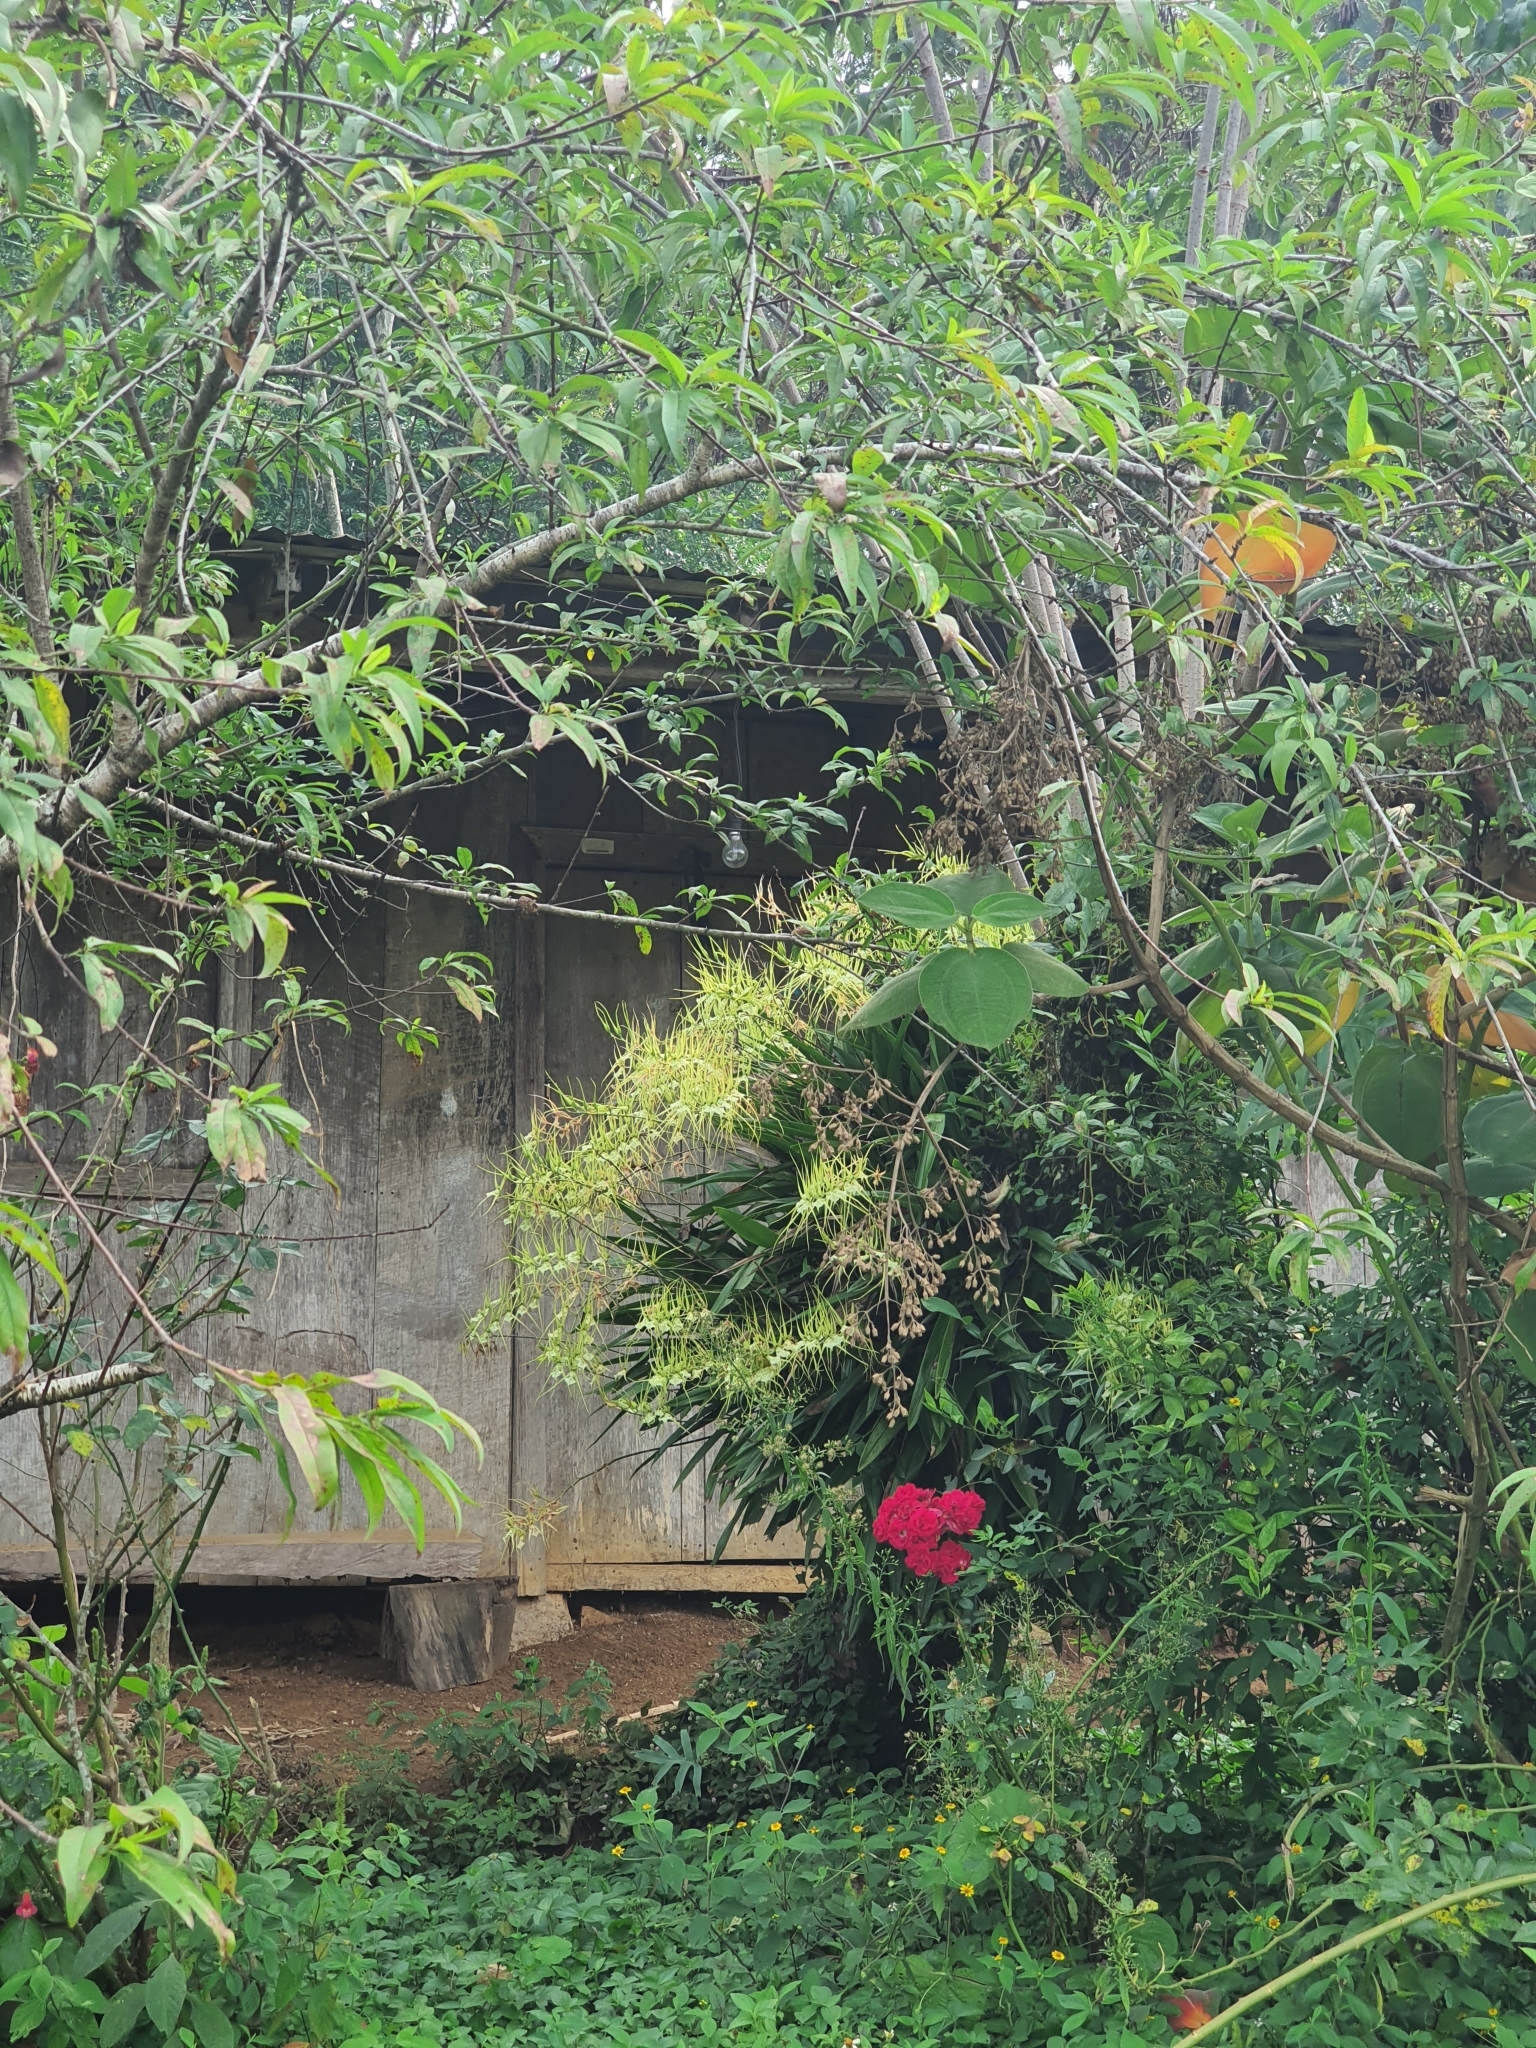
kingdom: Plantae
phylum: Tracheophyta
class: Liliopsida
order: Asparagales
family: Orchidaceae
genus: Brassia
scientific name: Brassia verrucosa
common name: Warty brassia
